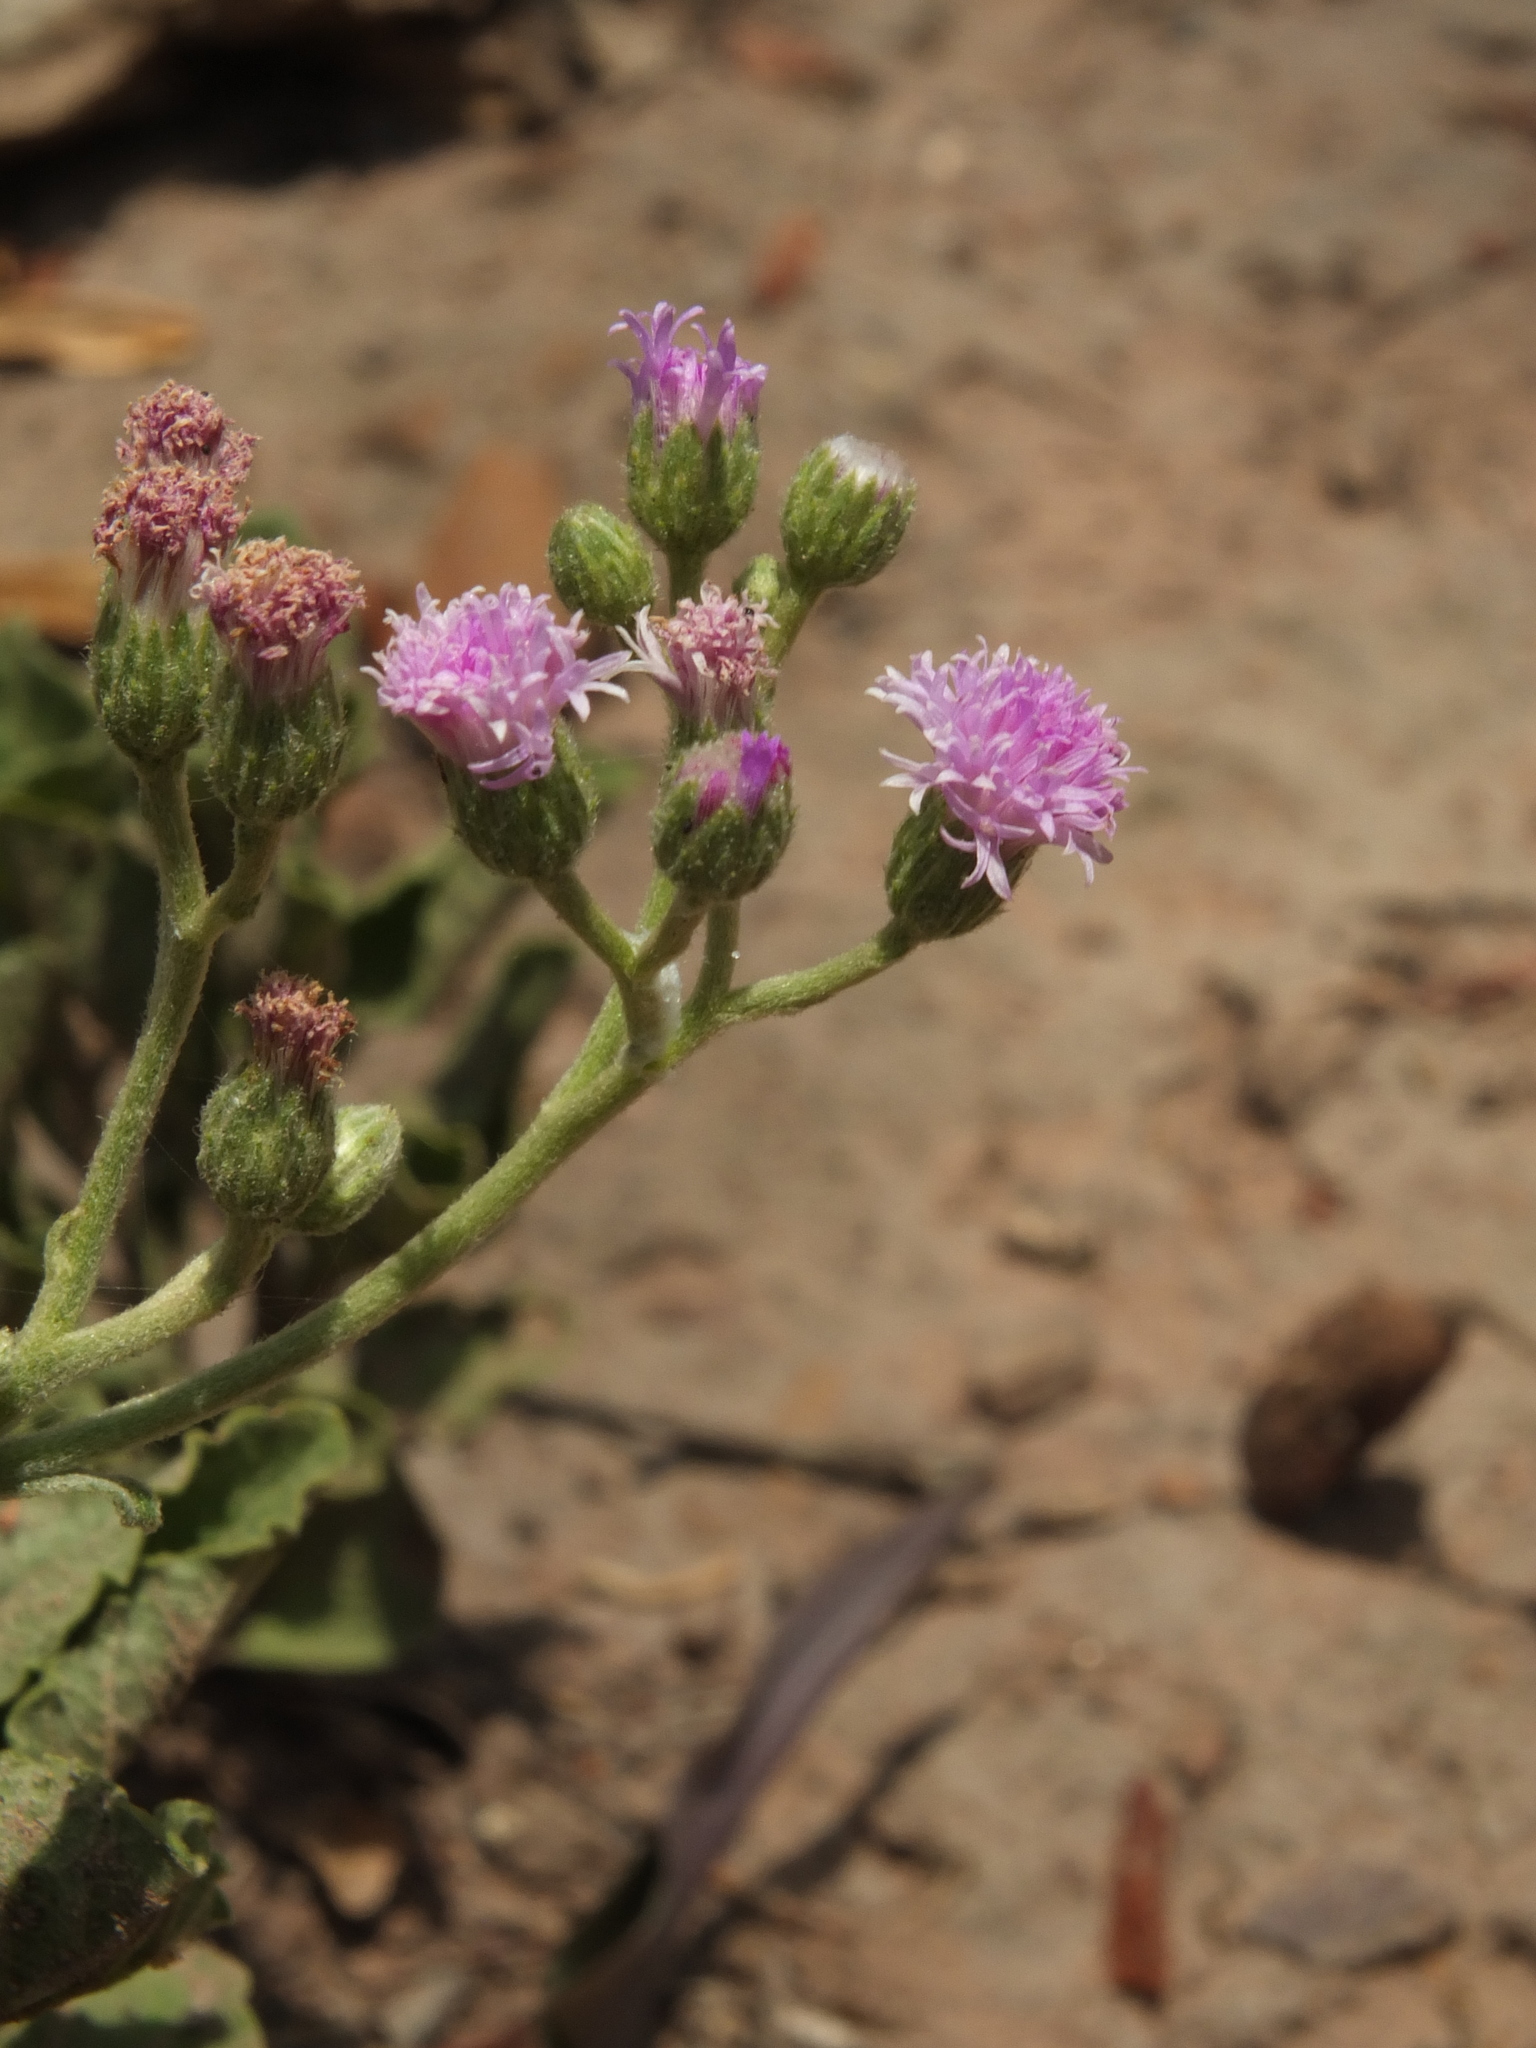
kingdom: Plantae
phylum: Tracheophyta
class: Magnoliopsida
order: Asterales
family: Asteraceae
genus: Cyanthillium
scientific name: Cyanthillium cinereum
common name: Little ironweed
